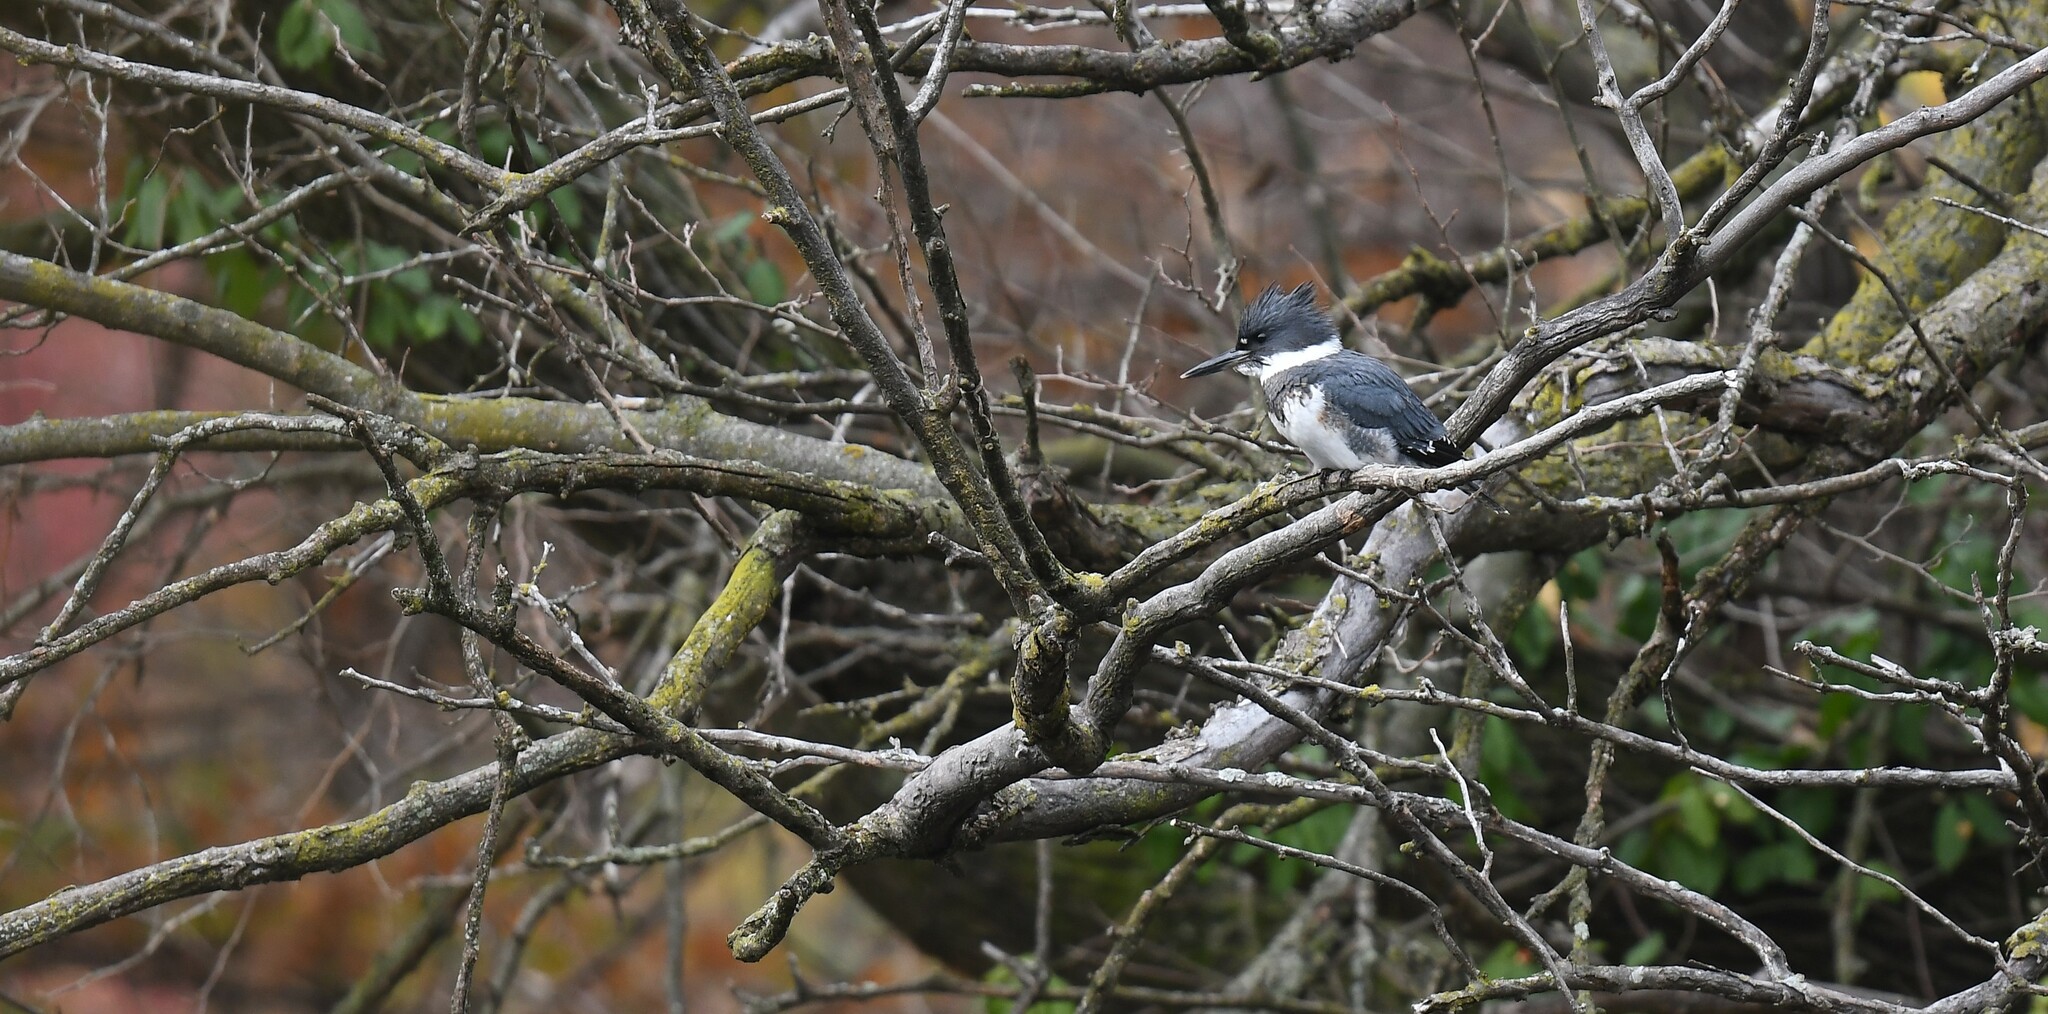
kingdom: Animalia
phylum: Chordata
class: Aves
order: Coraciiformes
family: Alcedinidae
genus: Megaceryle
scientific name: Megaceryle alcyon
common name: Belted kingfisher
